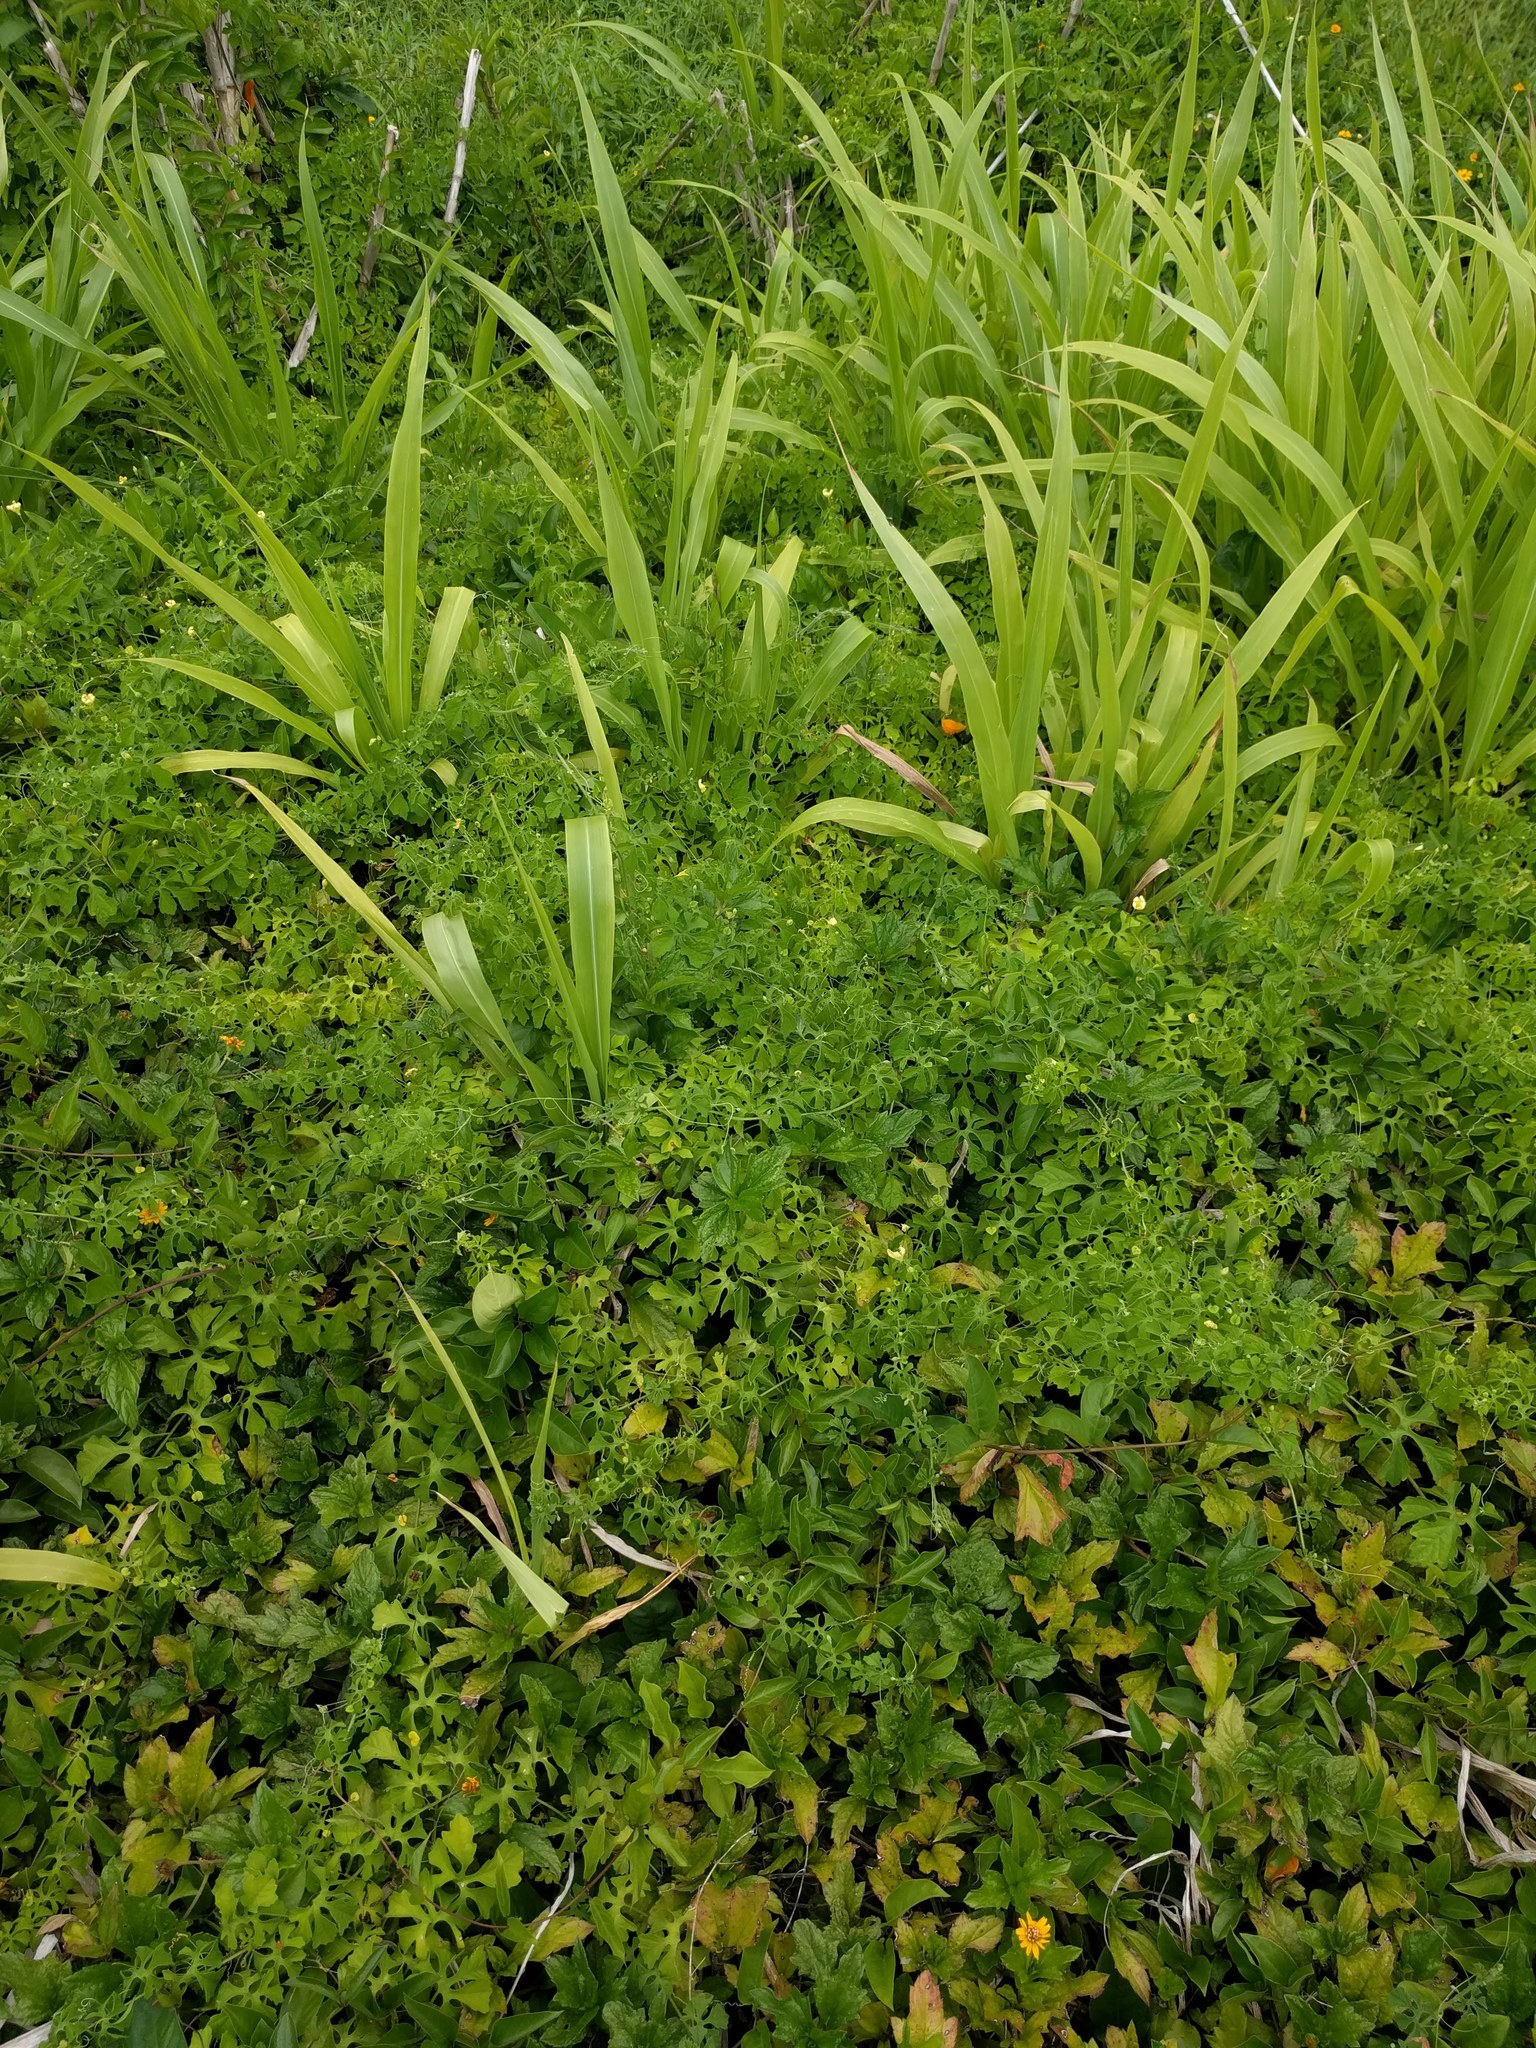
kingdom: Plantae
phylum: Tracheophyta
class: Magnoliopsida
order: Cucurbitales
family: Cucurbitaceae
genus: Momordica
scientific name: Momordica charantia
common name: Balsampear
